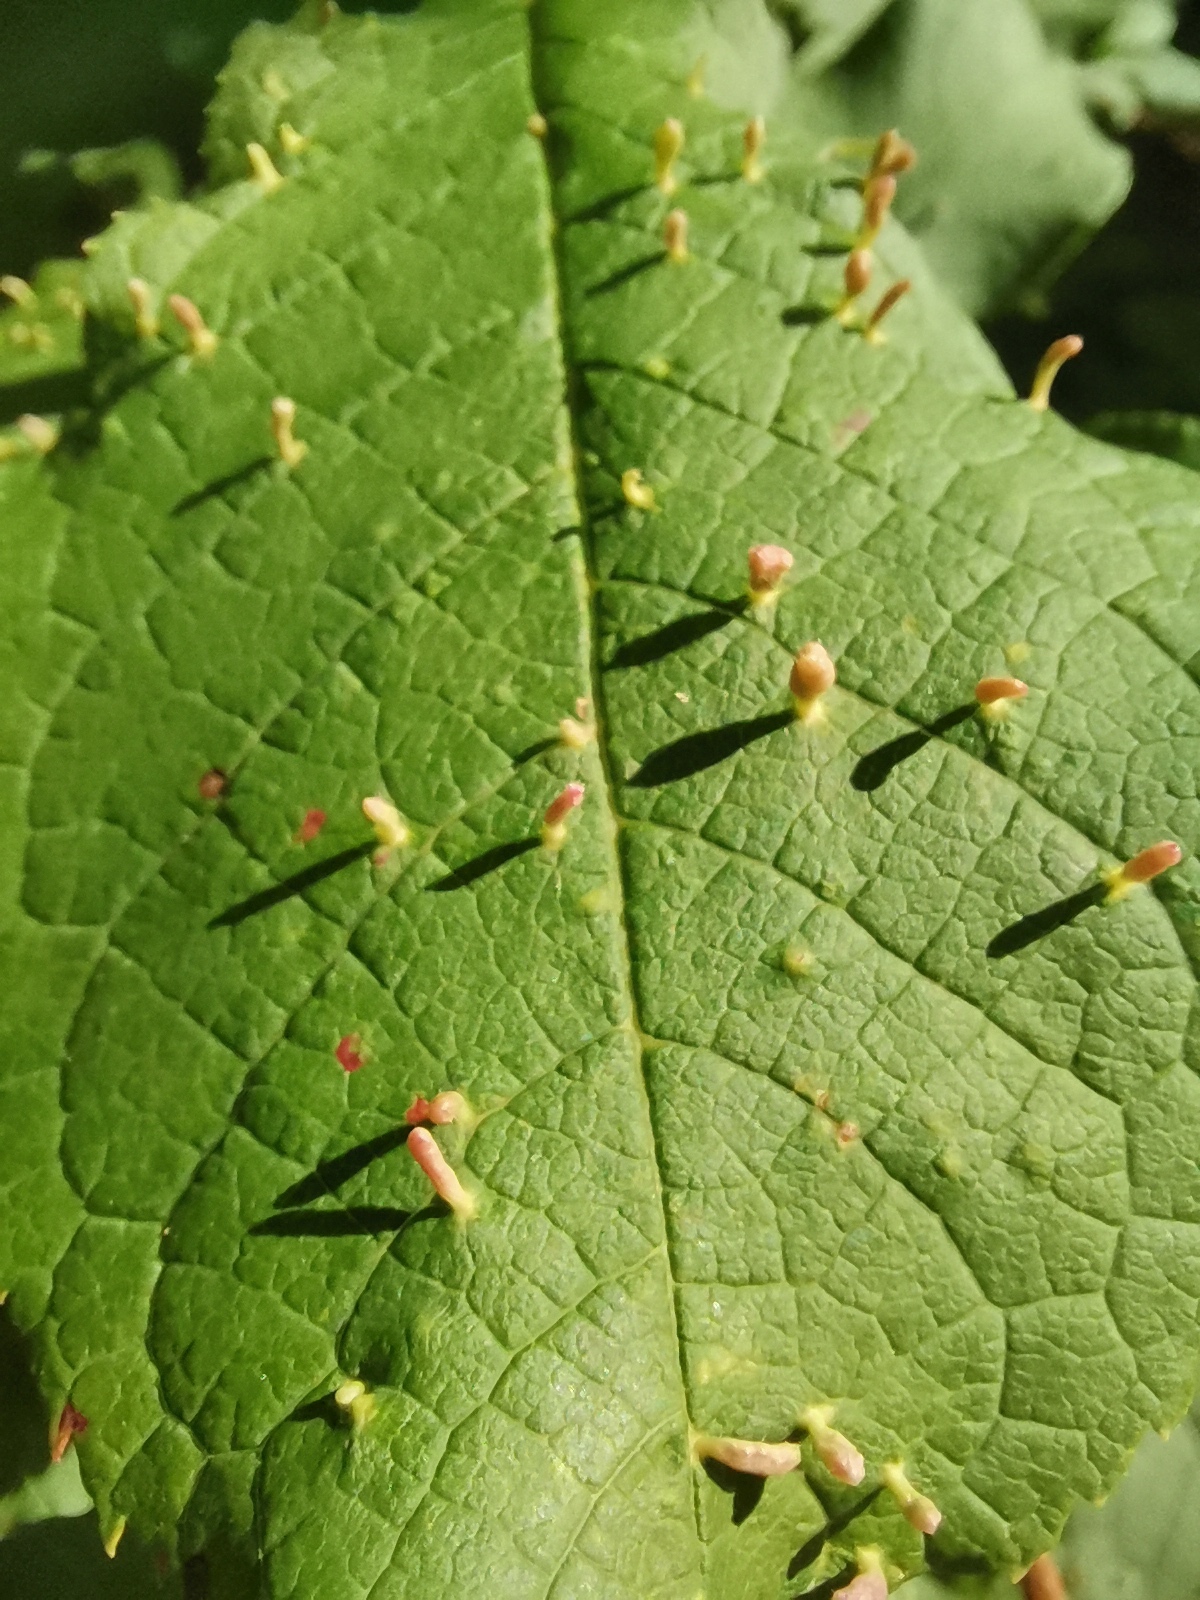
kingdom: Animalia
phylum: Arthropoda
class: Arachnida
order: Trombidiformes
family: Eriophyidae
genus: Phyllocoptes
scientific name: Phyllocoptes eupadi
